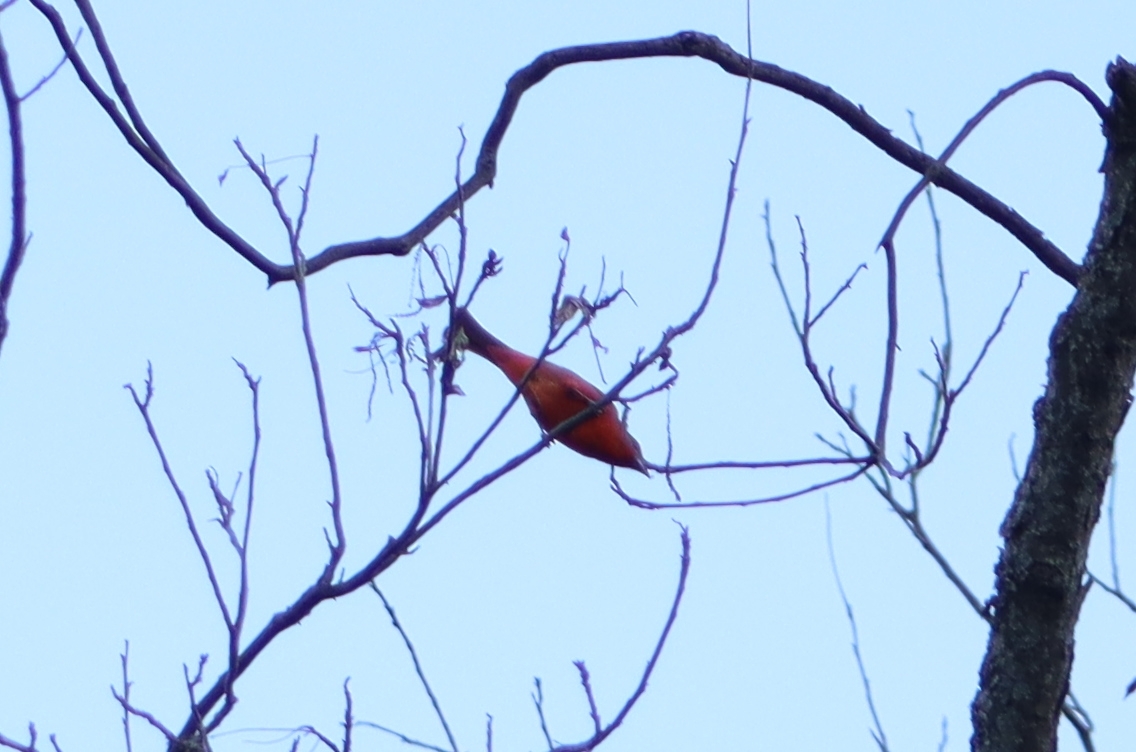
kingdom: Animalia
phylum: Chordata
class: Aves
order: Passeriformes
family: Cardinalidae
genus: Piranga
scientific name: Piranga flava
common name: Red tanager
